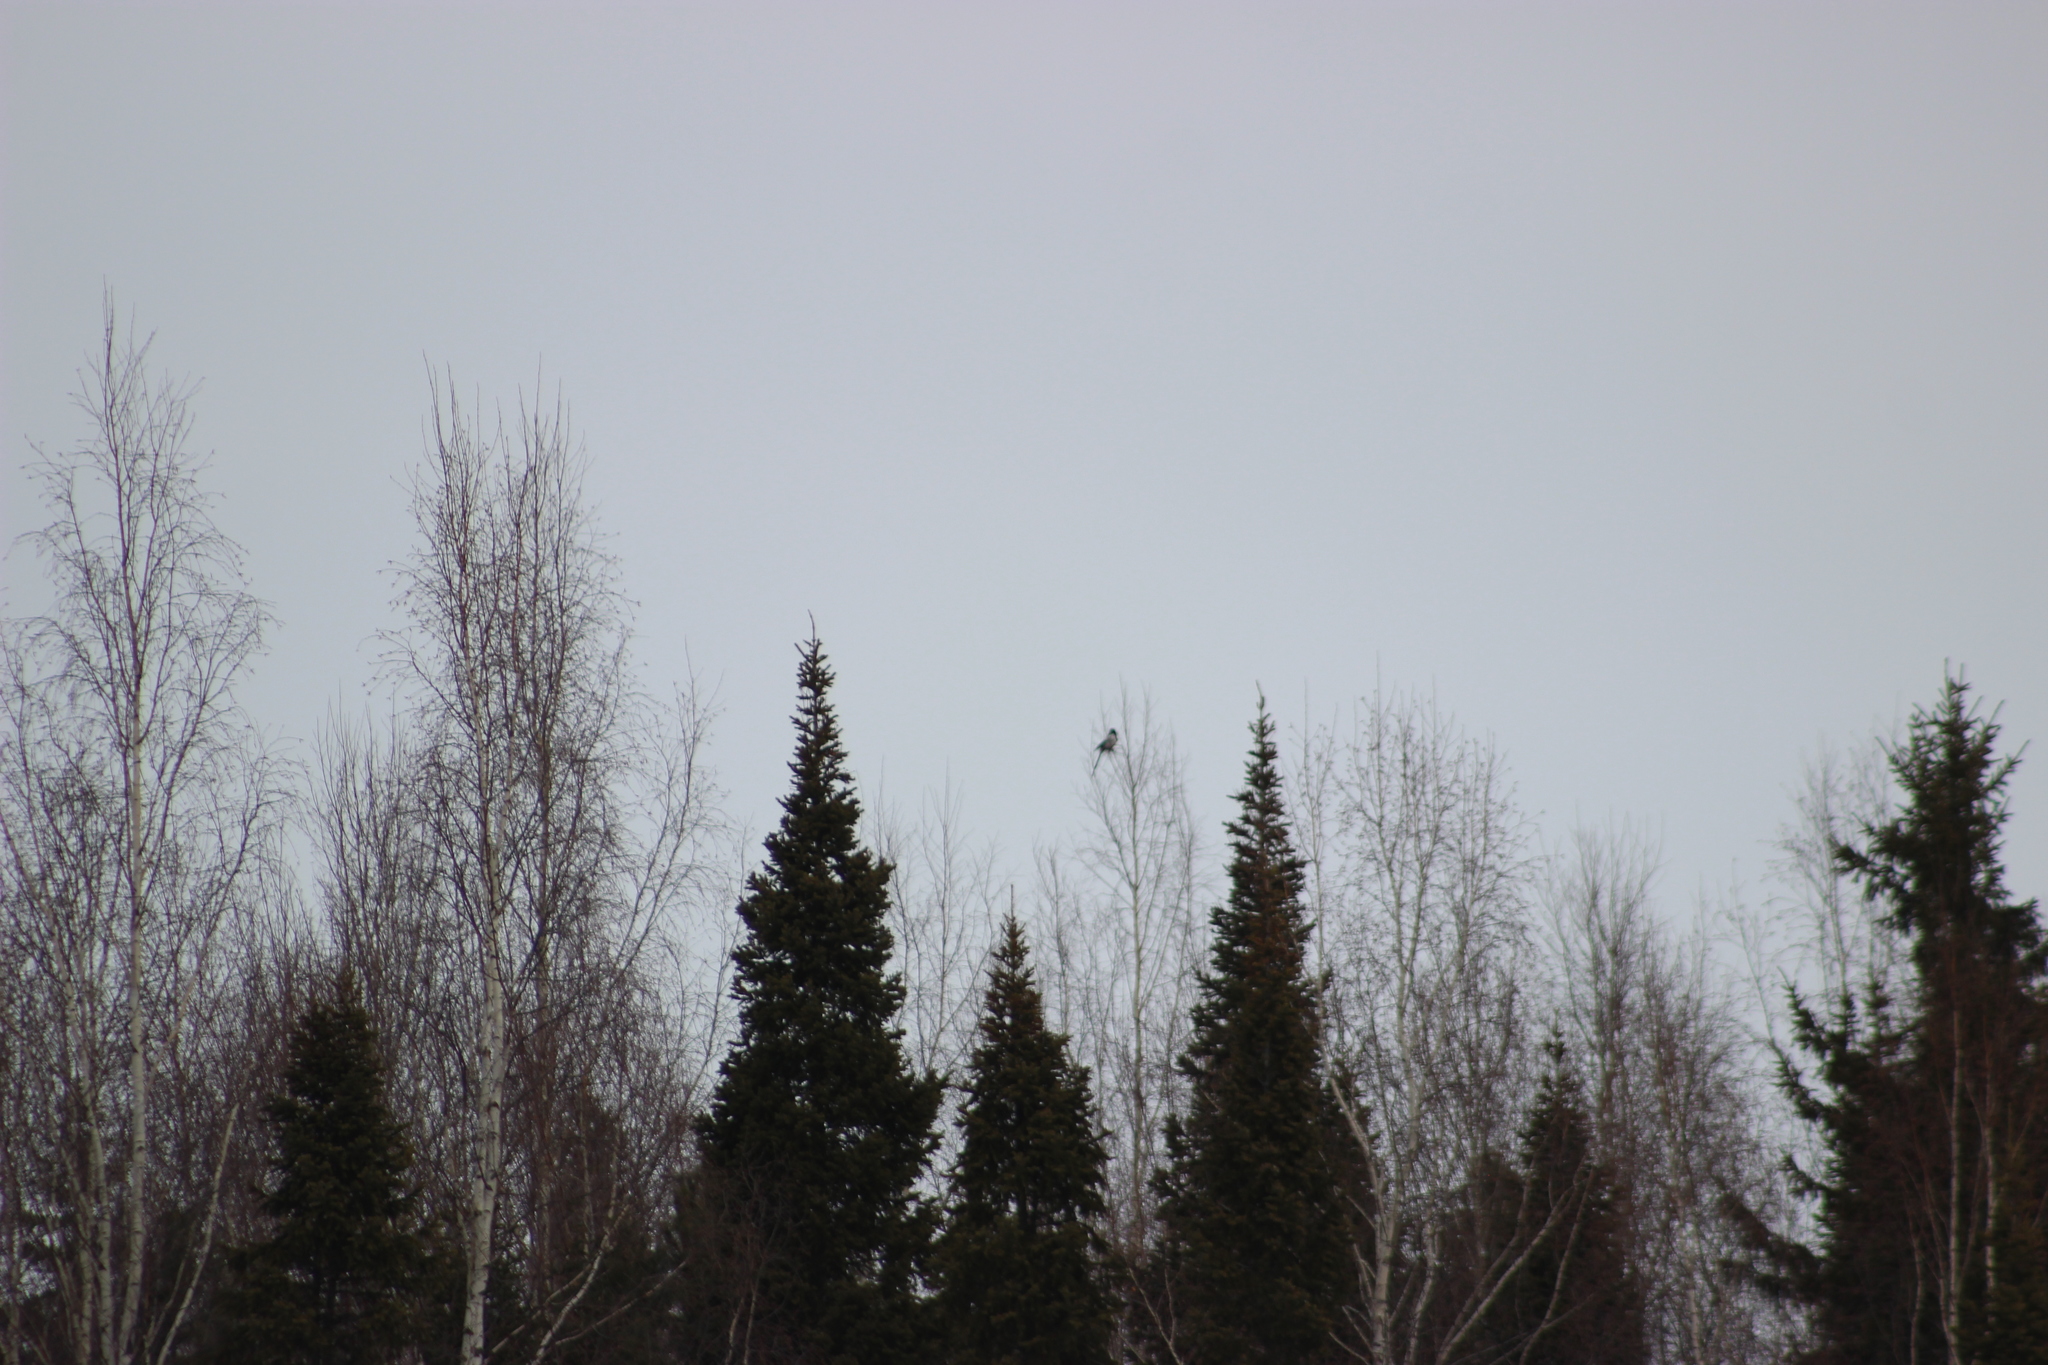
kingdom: Animalia
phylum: Chordata
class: Aves
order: Passeriformes
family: Corvidae
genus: Pica
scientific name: Pica pica
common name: Eurasian magpie
